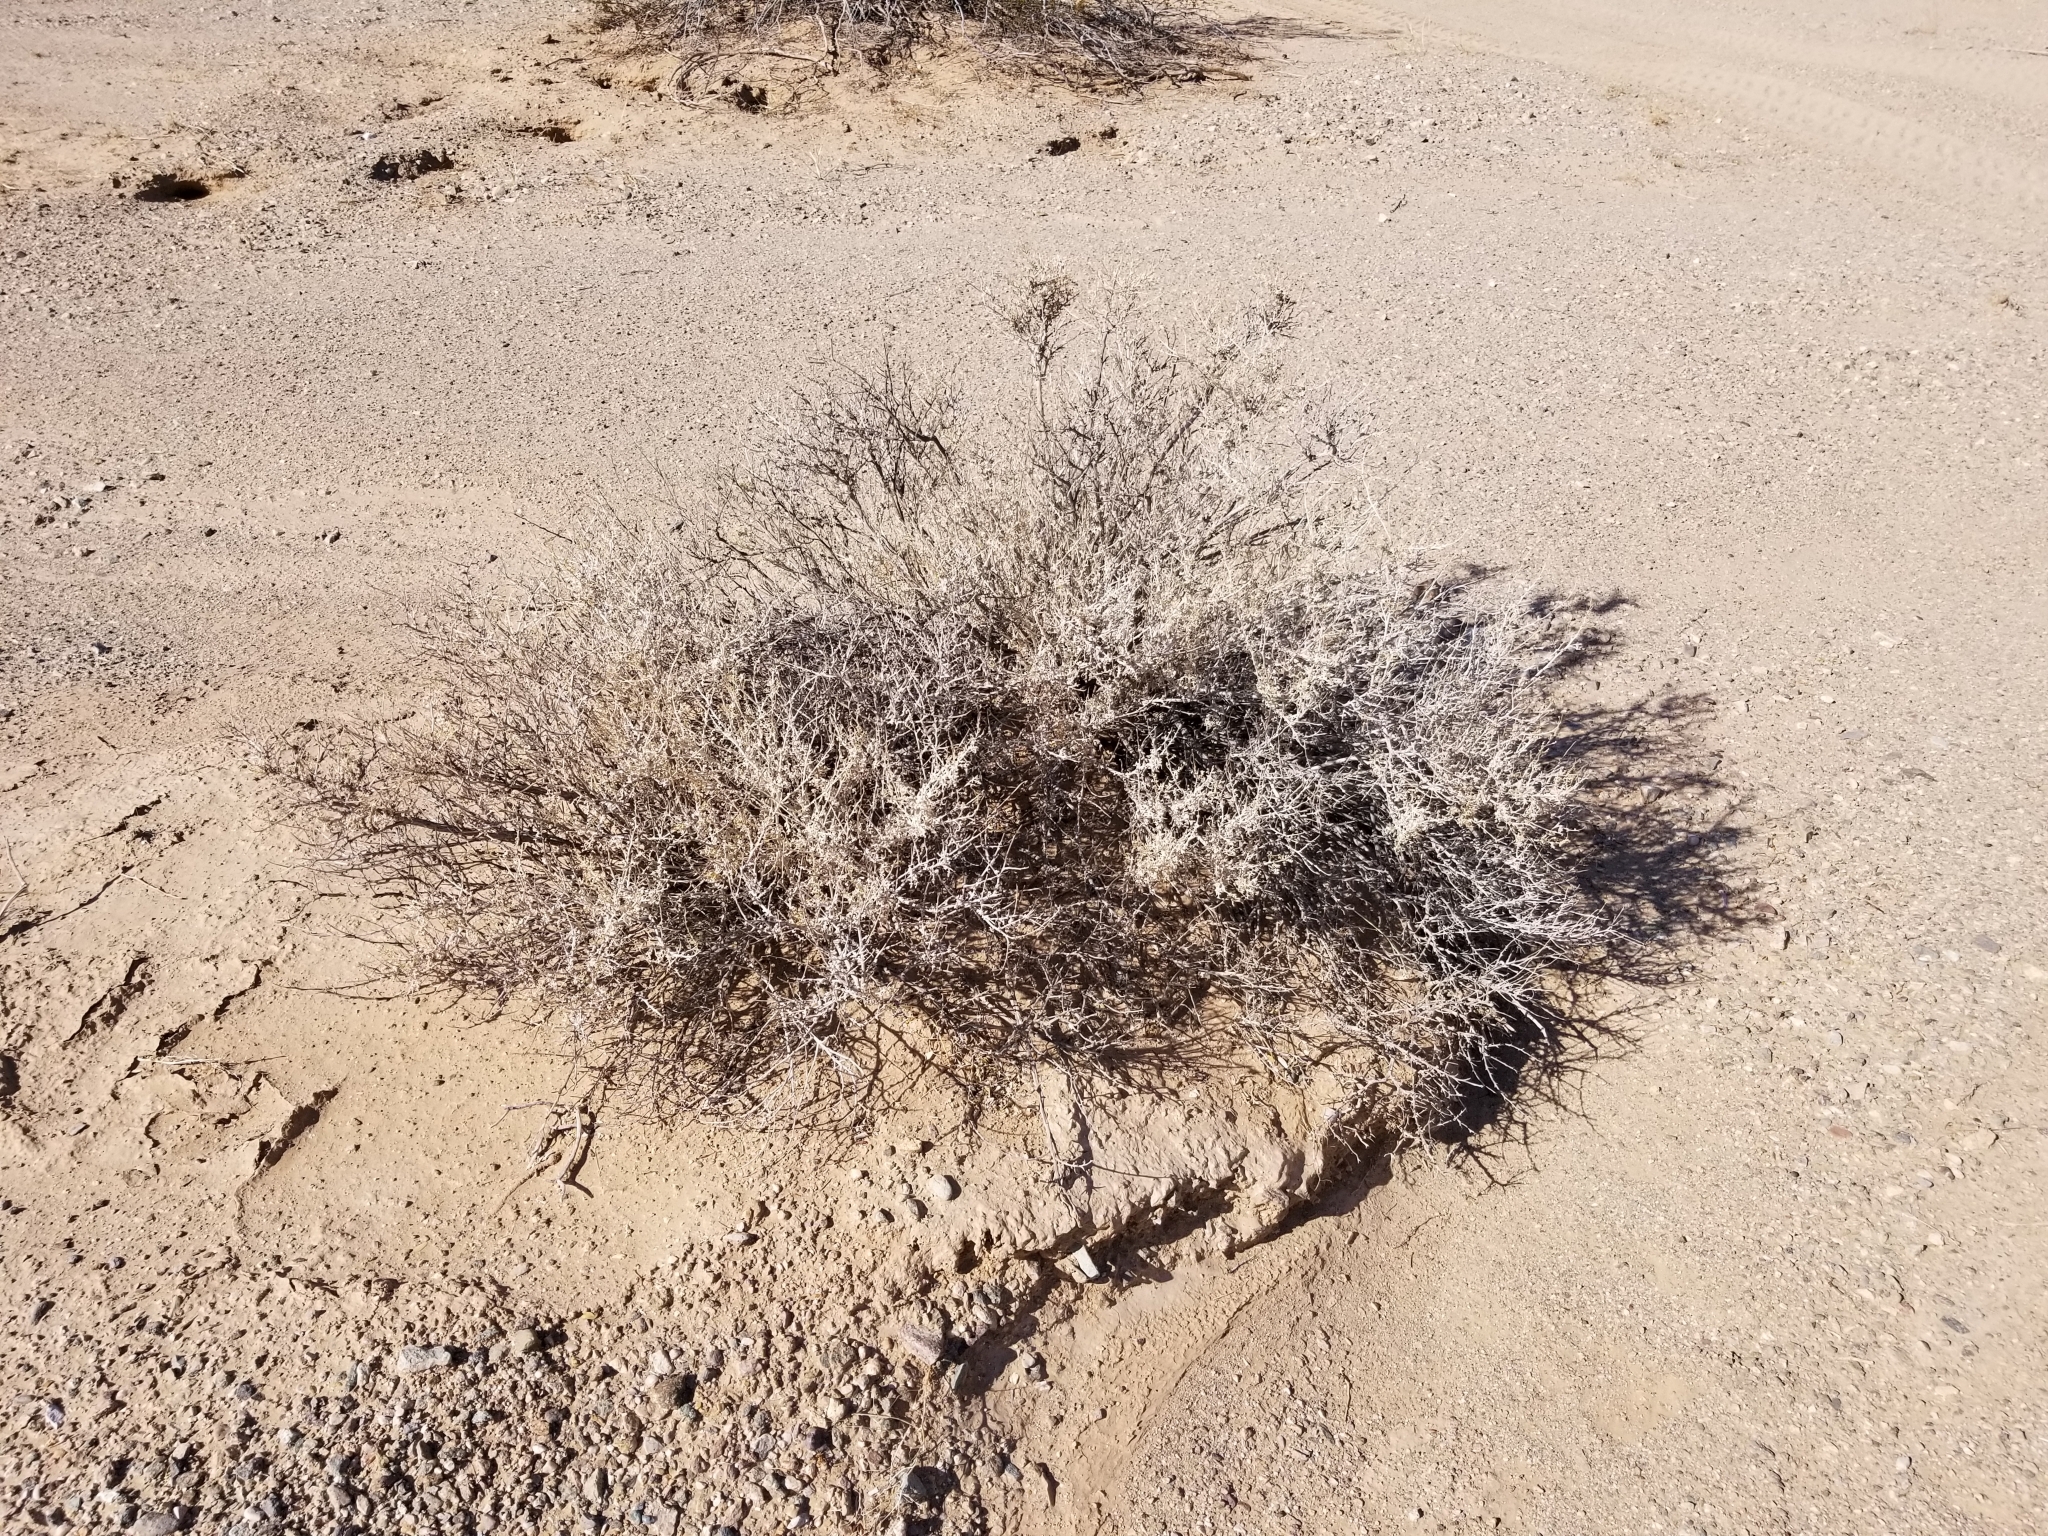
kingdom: Plantae
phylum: Tracheophyta
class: Magnoliopsida
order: Asterales
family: Asteraceae
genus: Ambrosia
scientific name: Ambrosia dumosa
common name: Bur-sage
